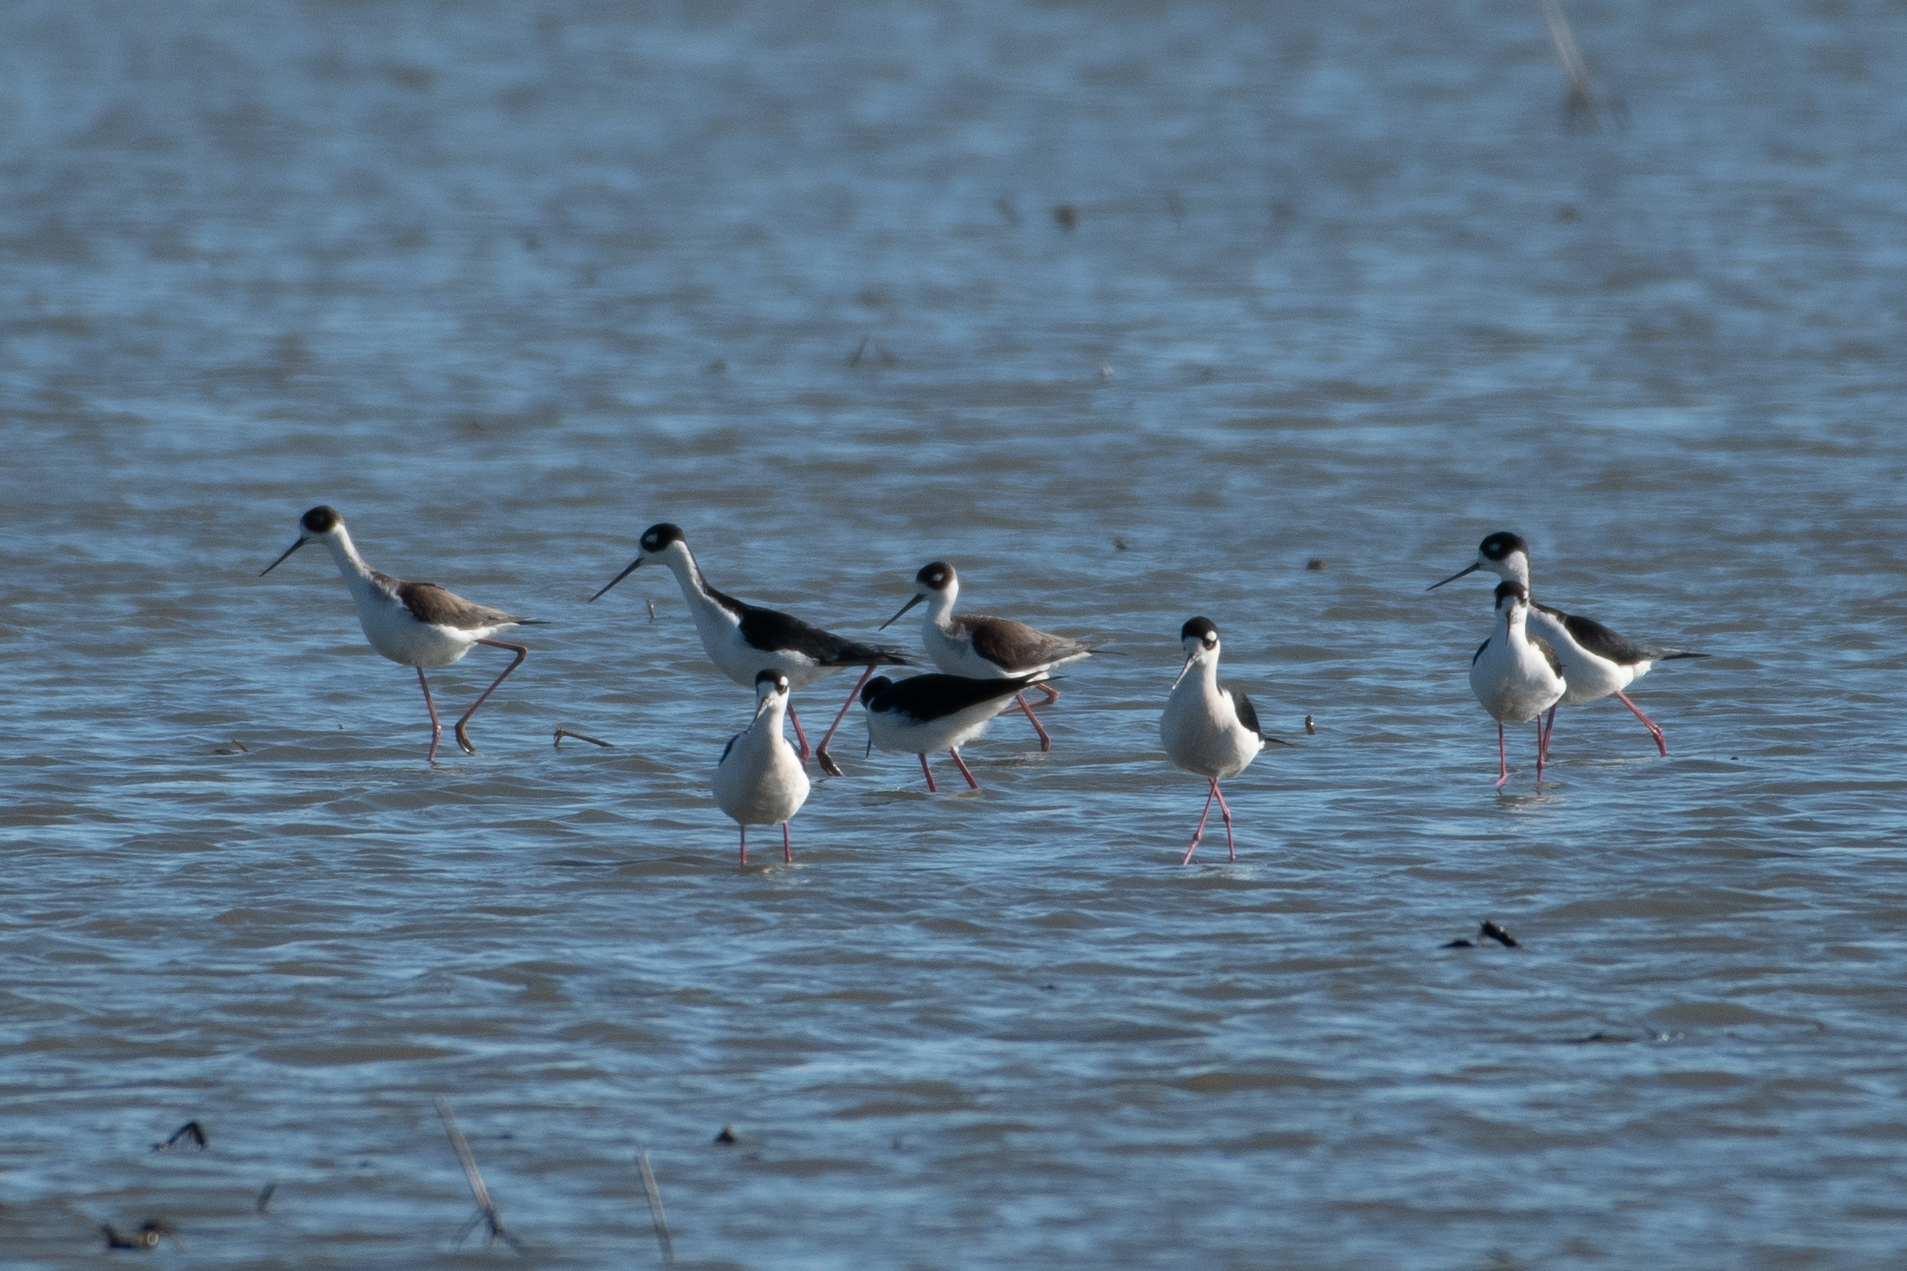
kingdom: Animalia
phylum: Chordata
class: Aves
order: Charadriiformes
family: Recurvirostridae
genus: Himantopus
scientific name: Himantopus mexicanus
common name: Black-necked stilt
